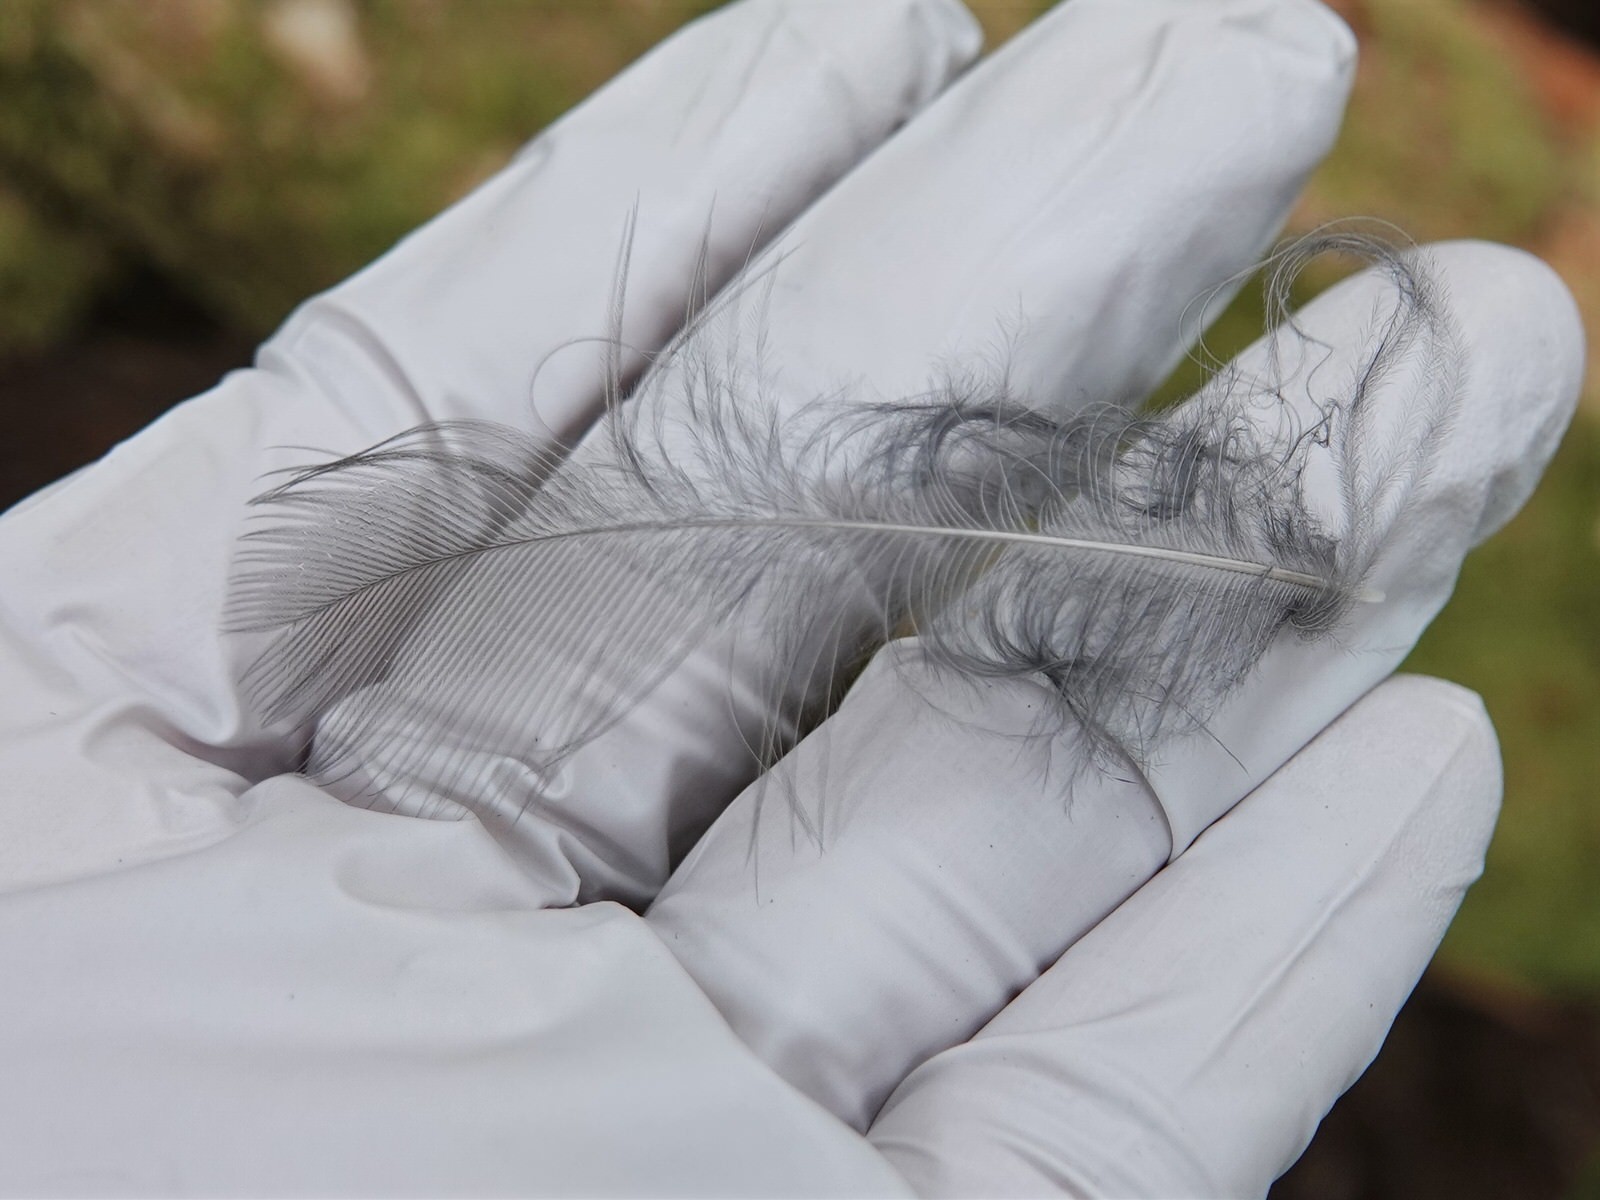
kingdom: Animalia
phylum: Chordata
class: Aves
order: Passeriformes
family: Callaeatidae
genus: Callaeas
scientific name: Callaeas cinereus
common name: South island kokako
